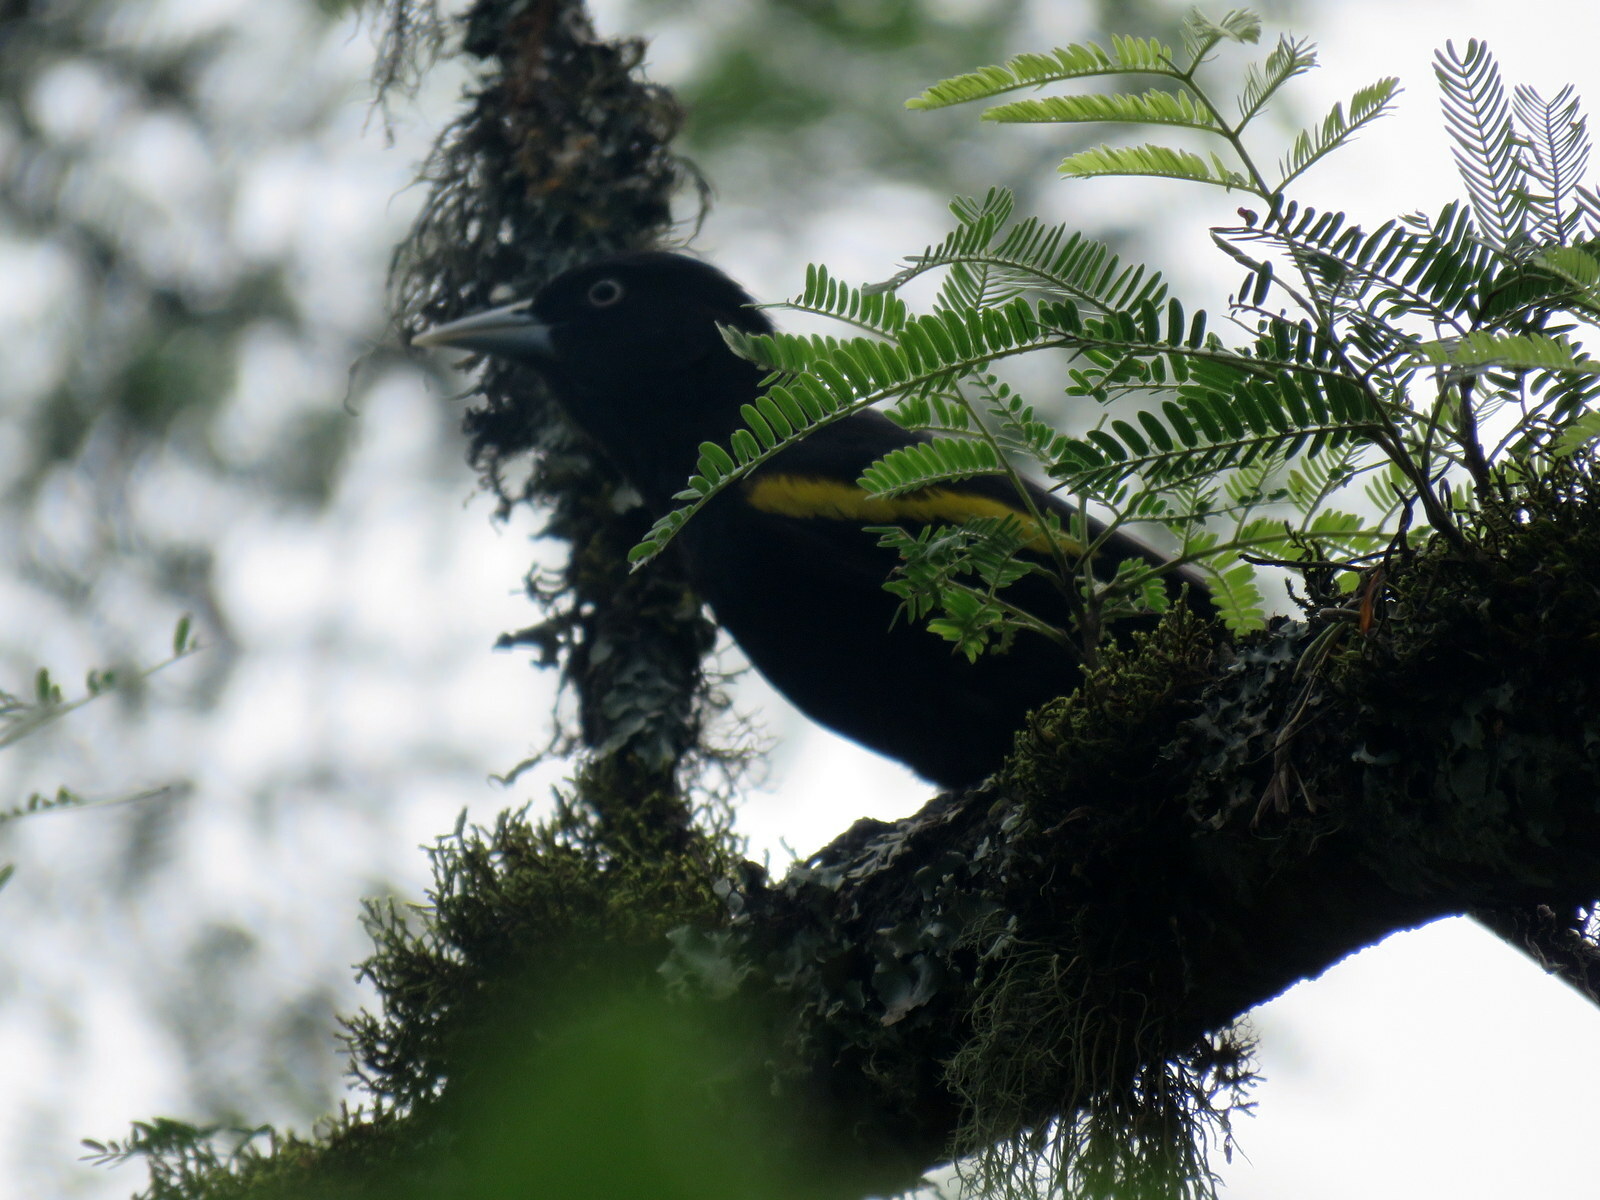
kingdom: Animalia
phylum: Chordata
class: Aves
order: Passeriformes
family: Icteridae
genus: Cacicus
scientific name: Cacicus chrysopterus
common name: Golden-winged cacique
